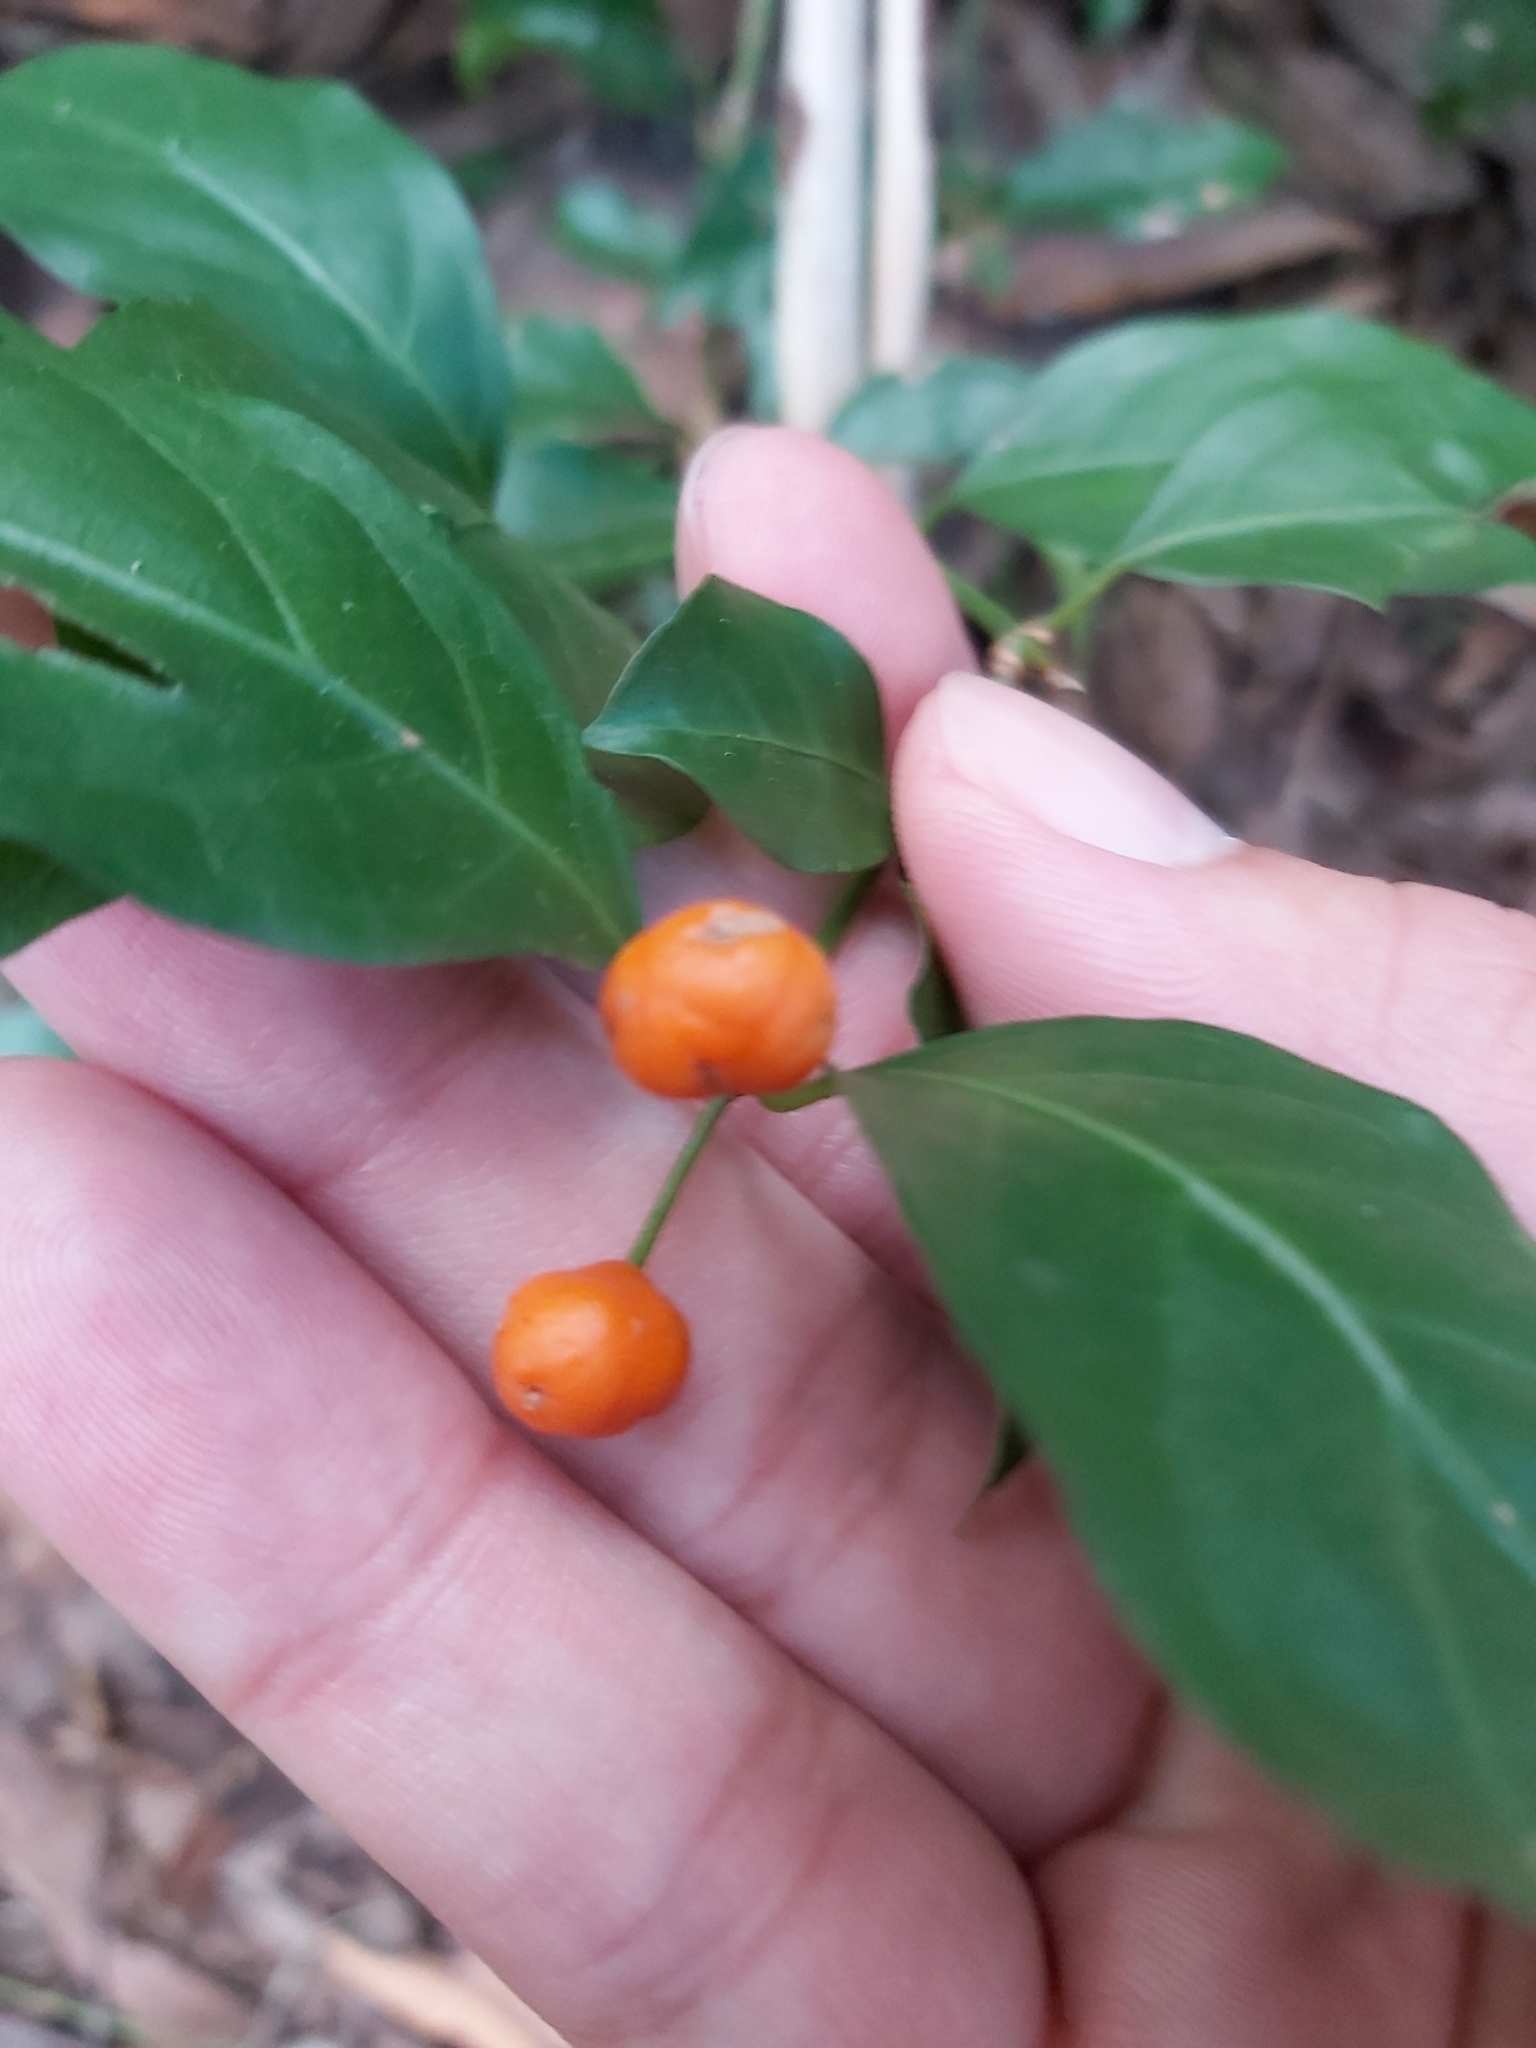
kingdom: Plantae
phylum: Tracheophyta
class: Magnoliopsida
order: Gentianales
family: Rubiaceae
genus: Gynochthodes
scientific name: Gynochthodes jasminoides
